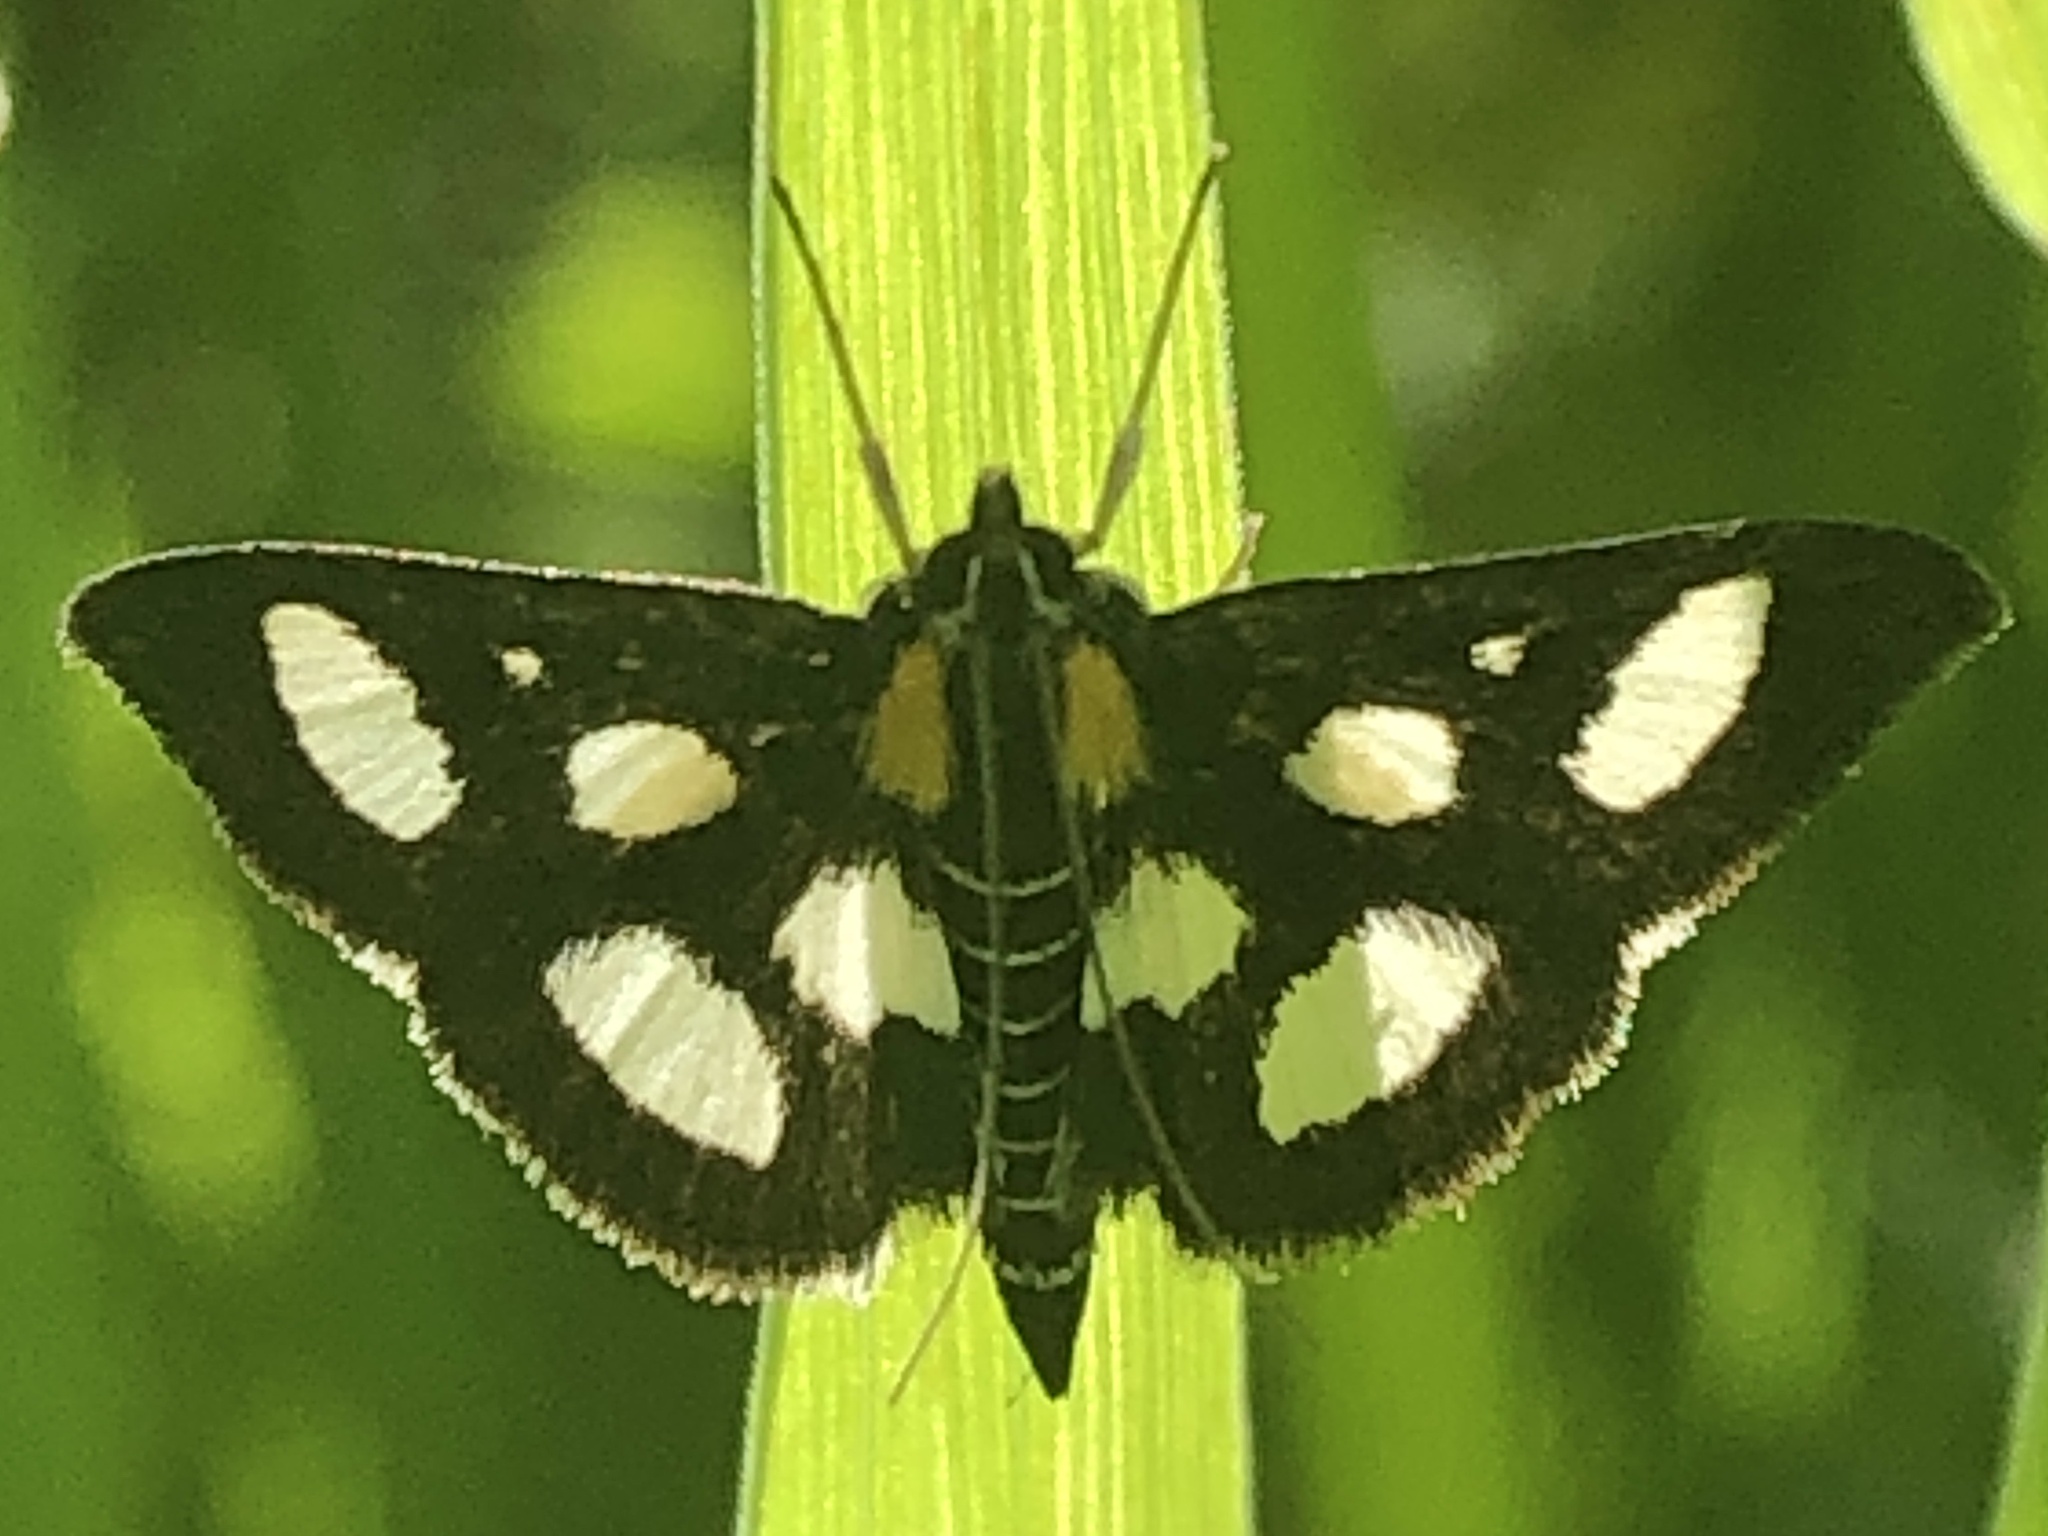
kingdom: Animalia
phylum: Arthropoda
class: Insecta
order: Lepidoptera
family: Crambidae
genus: Anania
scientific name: Anania funebris
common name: White-spotted sable moth
